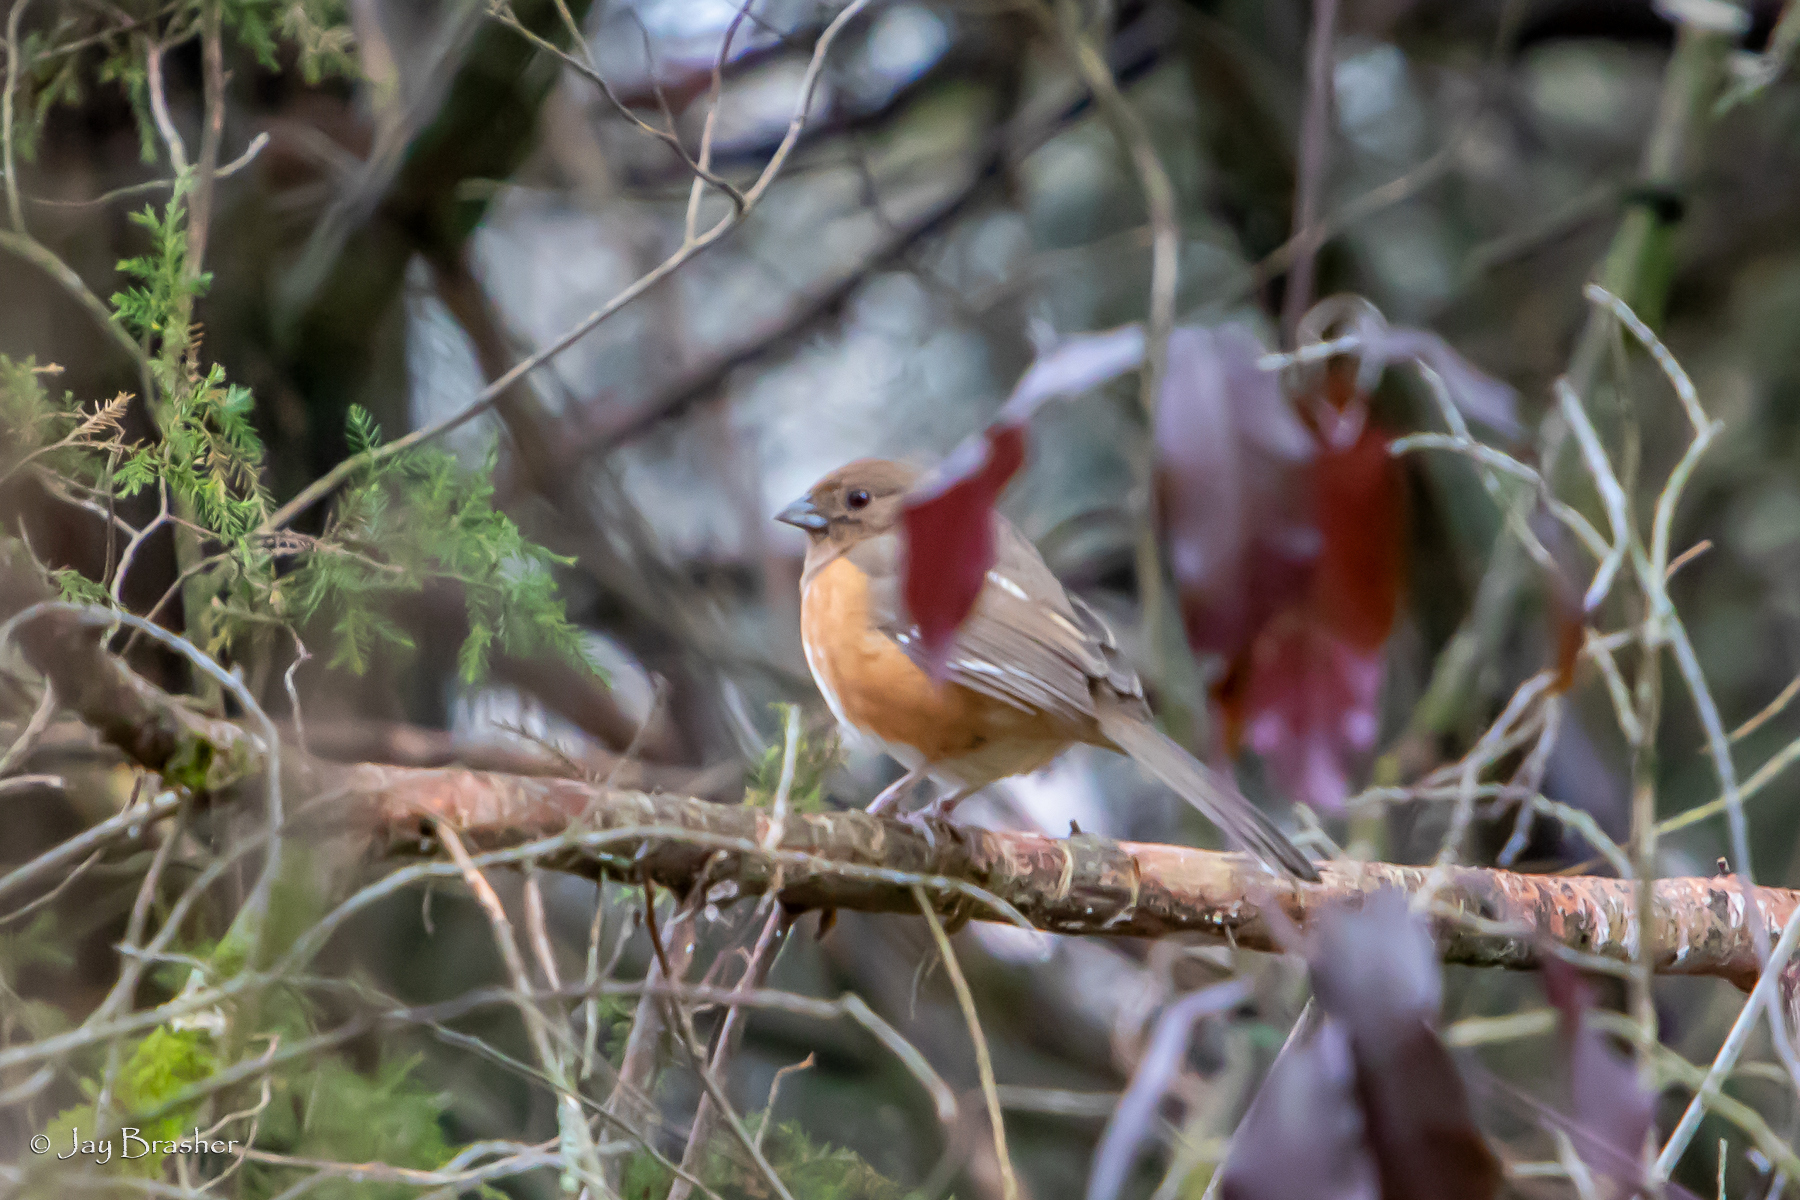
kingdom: Animalia
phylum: Chordata
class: Aves
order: Passeriformes
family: Passerellidae
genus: Pipilo
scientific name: Pipilo erythrophthalmus
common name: Eastern towhee
